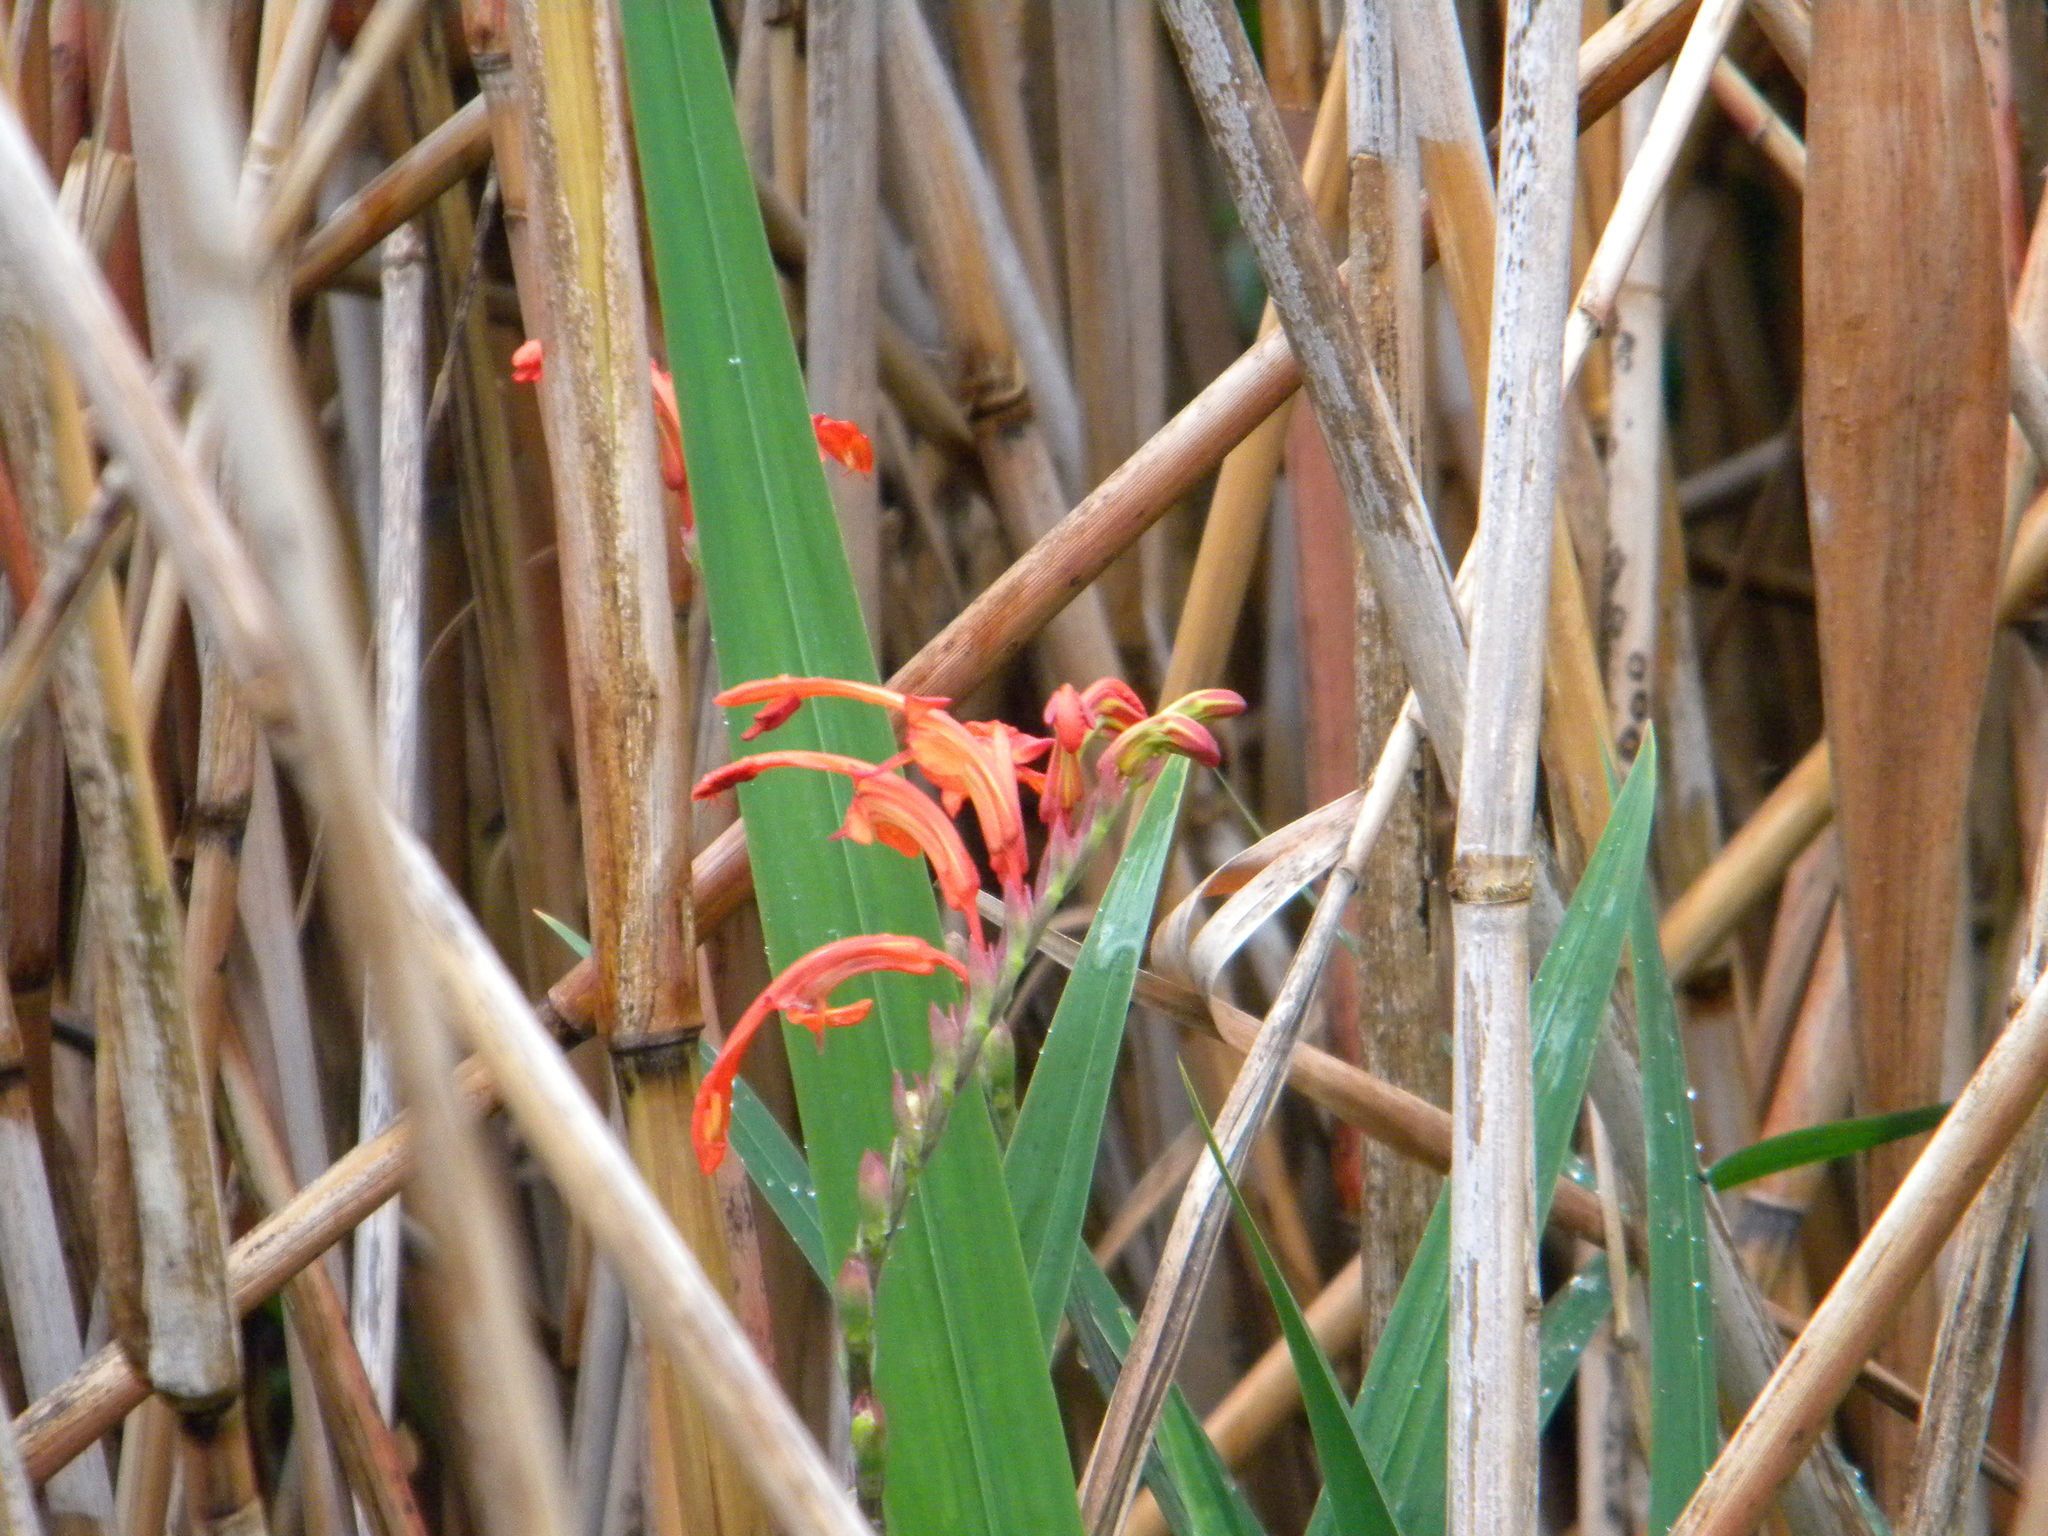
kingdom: Plantae
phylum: Tracheophyta
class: Liliopsida
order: Asparagales
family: Iridaceae
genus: Chasmanthe
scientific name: Chasmanthe aethiopica
